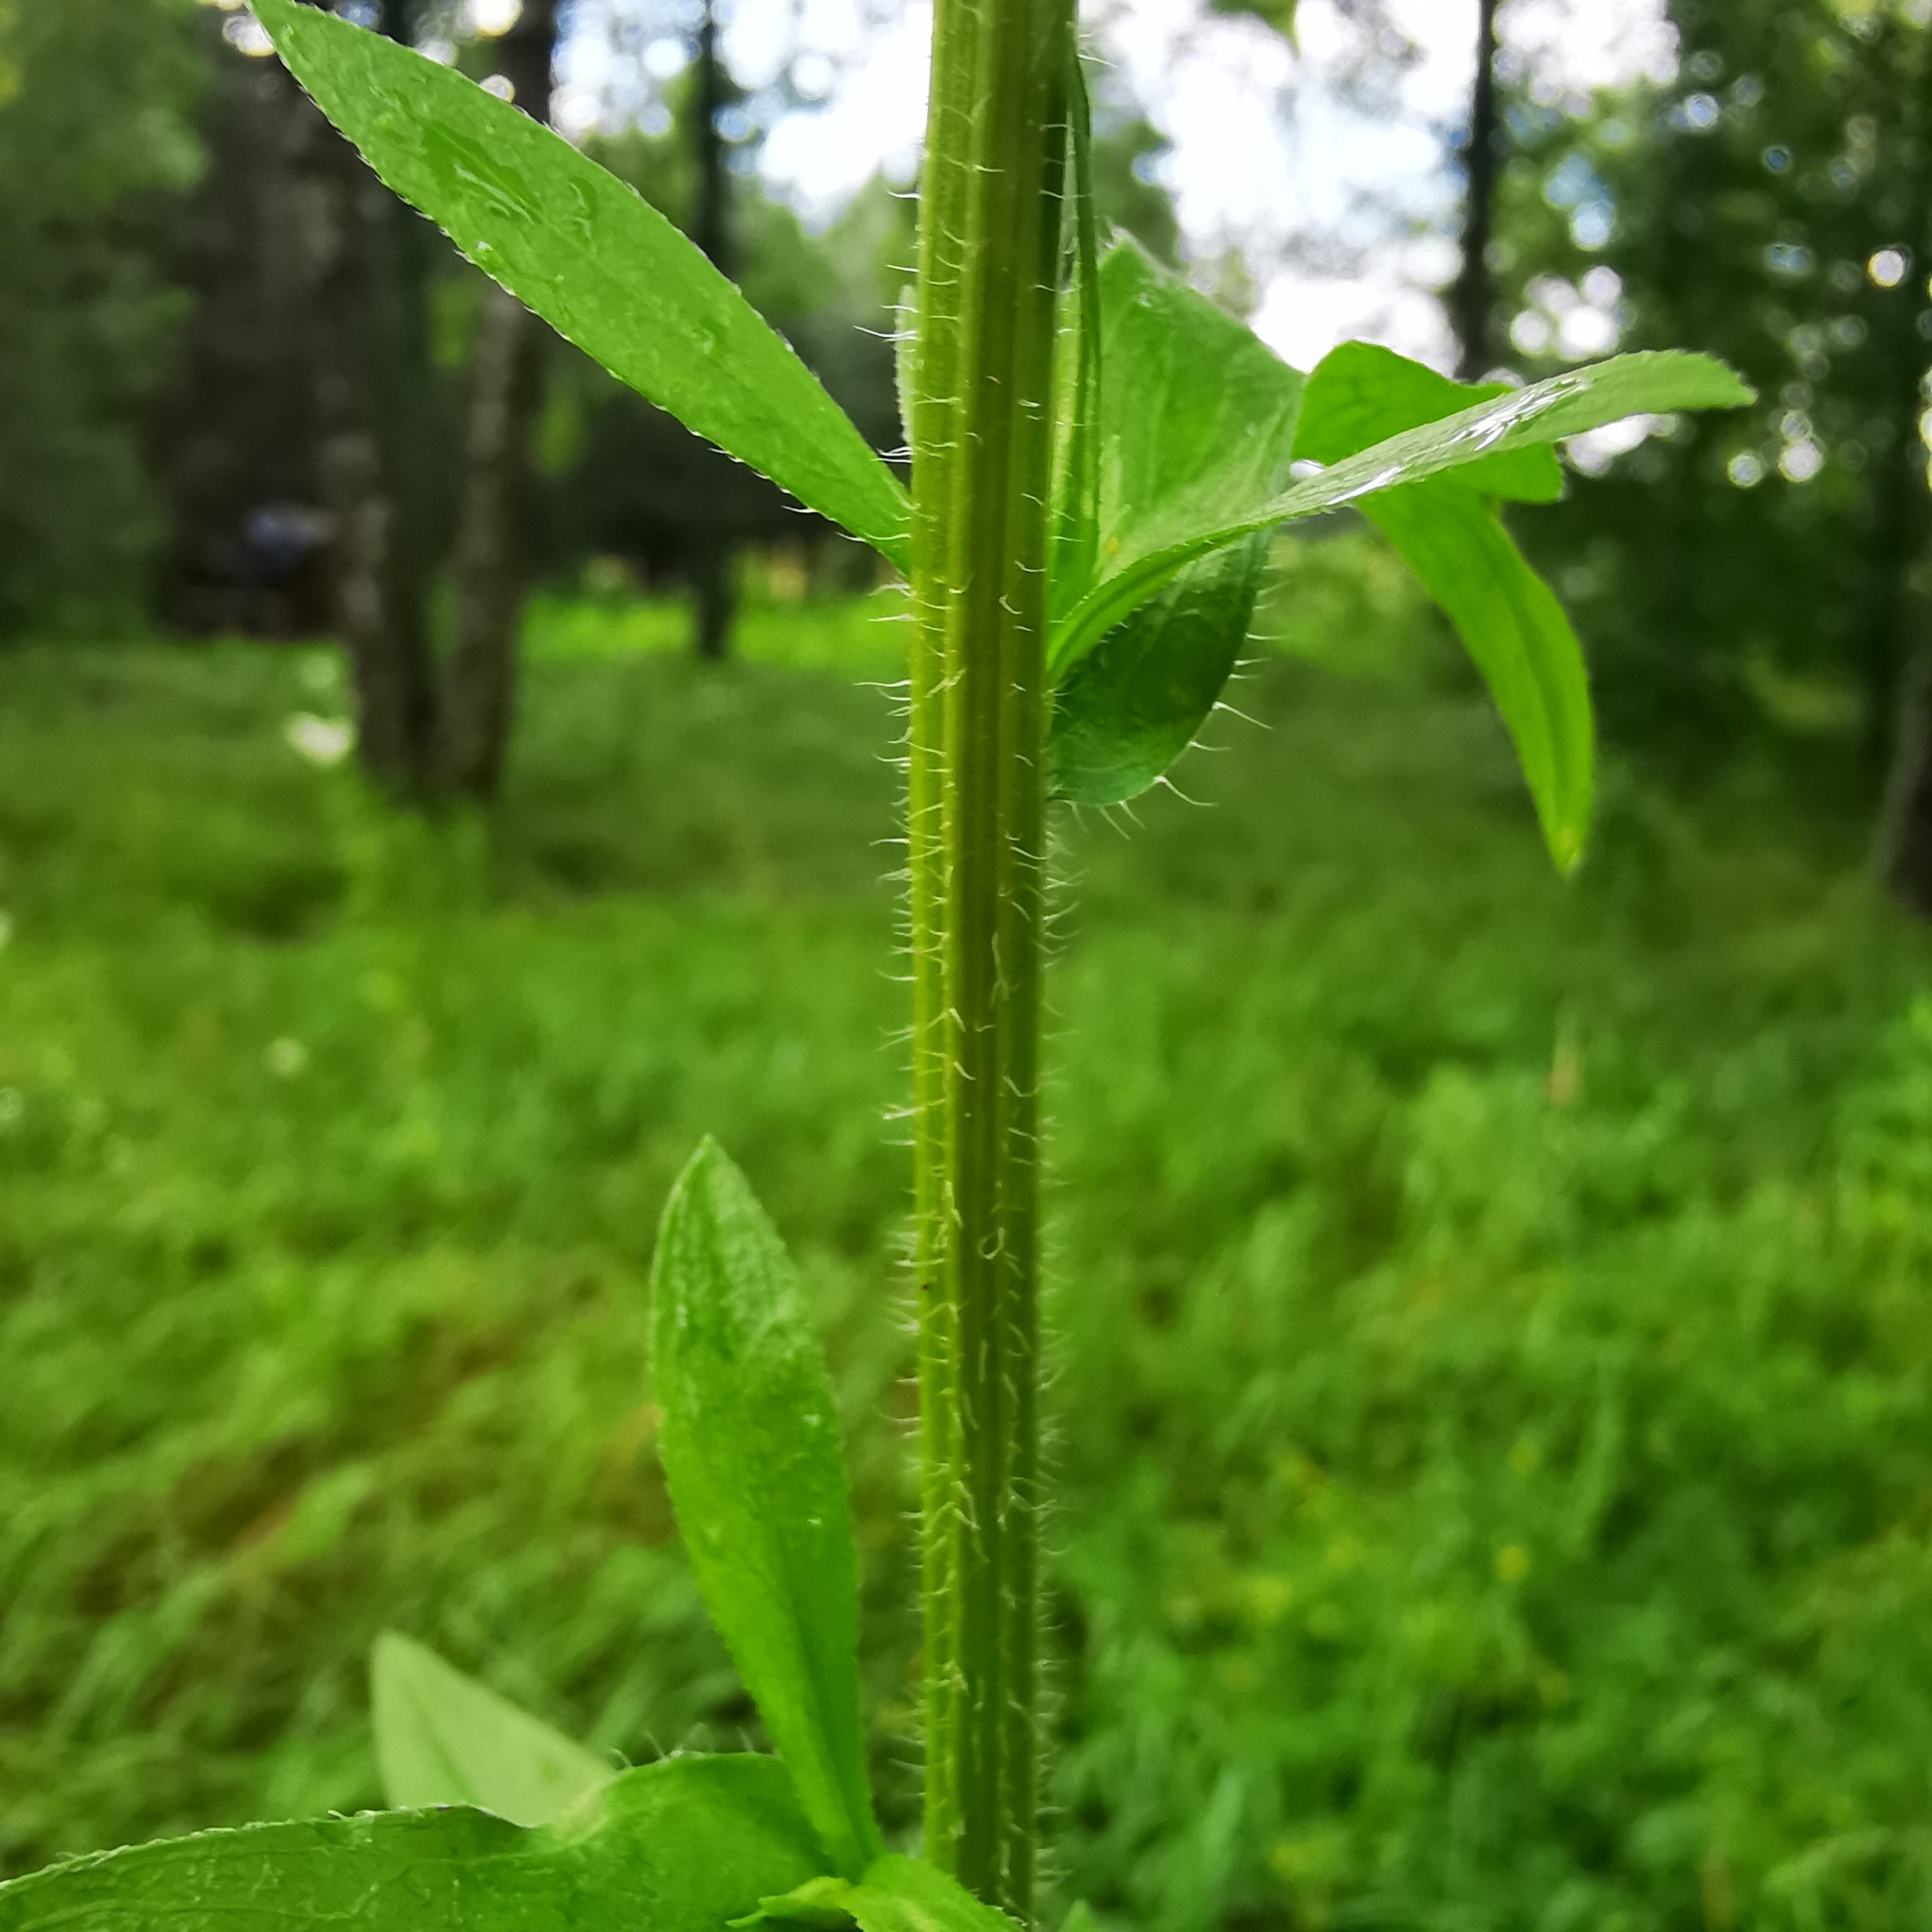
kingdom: Plantae
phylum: Tracheophyta
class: Magnoliopsida
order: Asterales
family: Asteraceae
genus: Erigeron
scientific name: Erigeron annuus
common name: Tall fleabane
